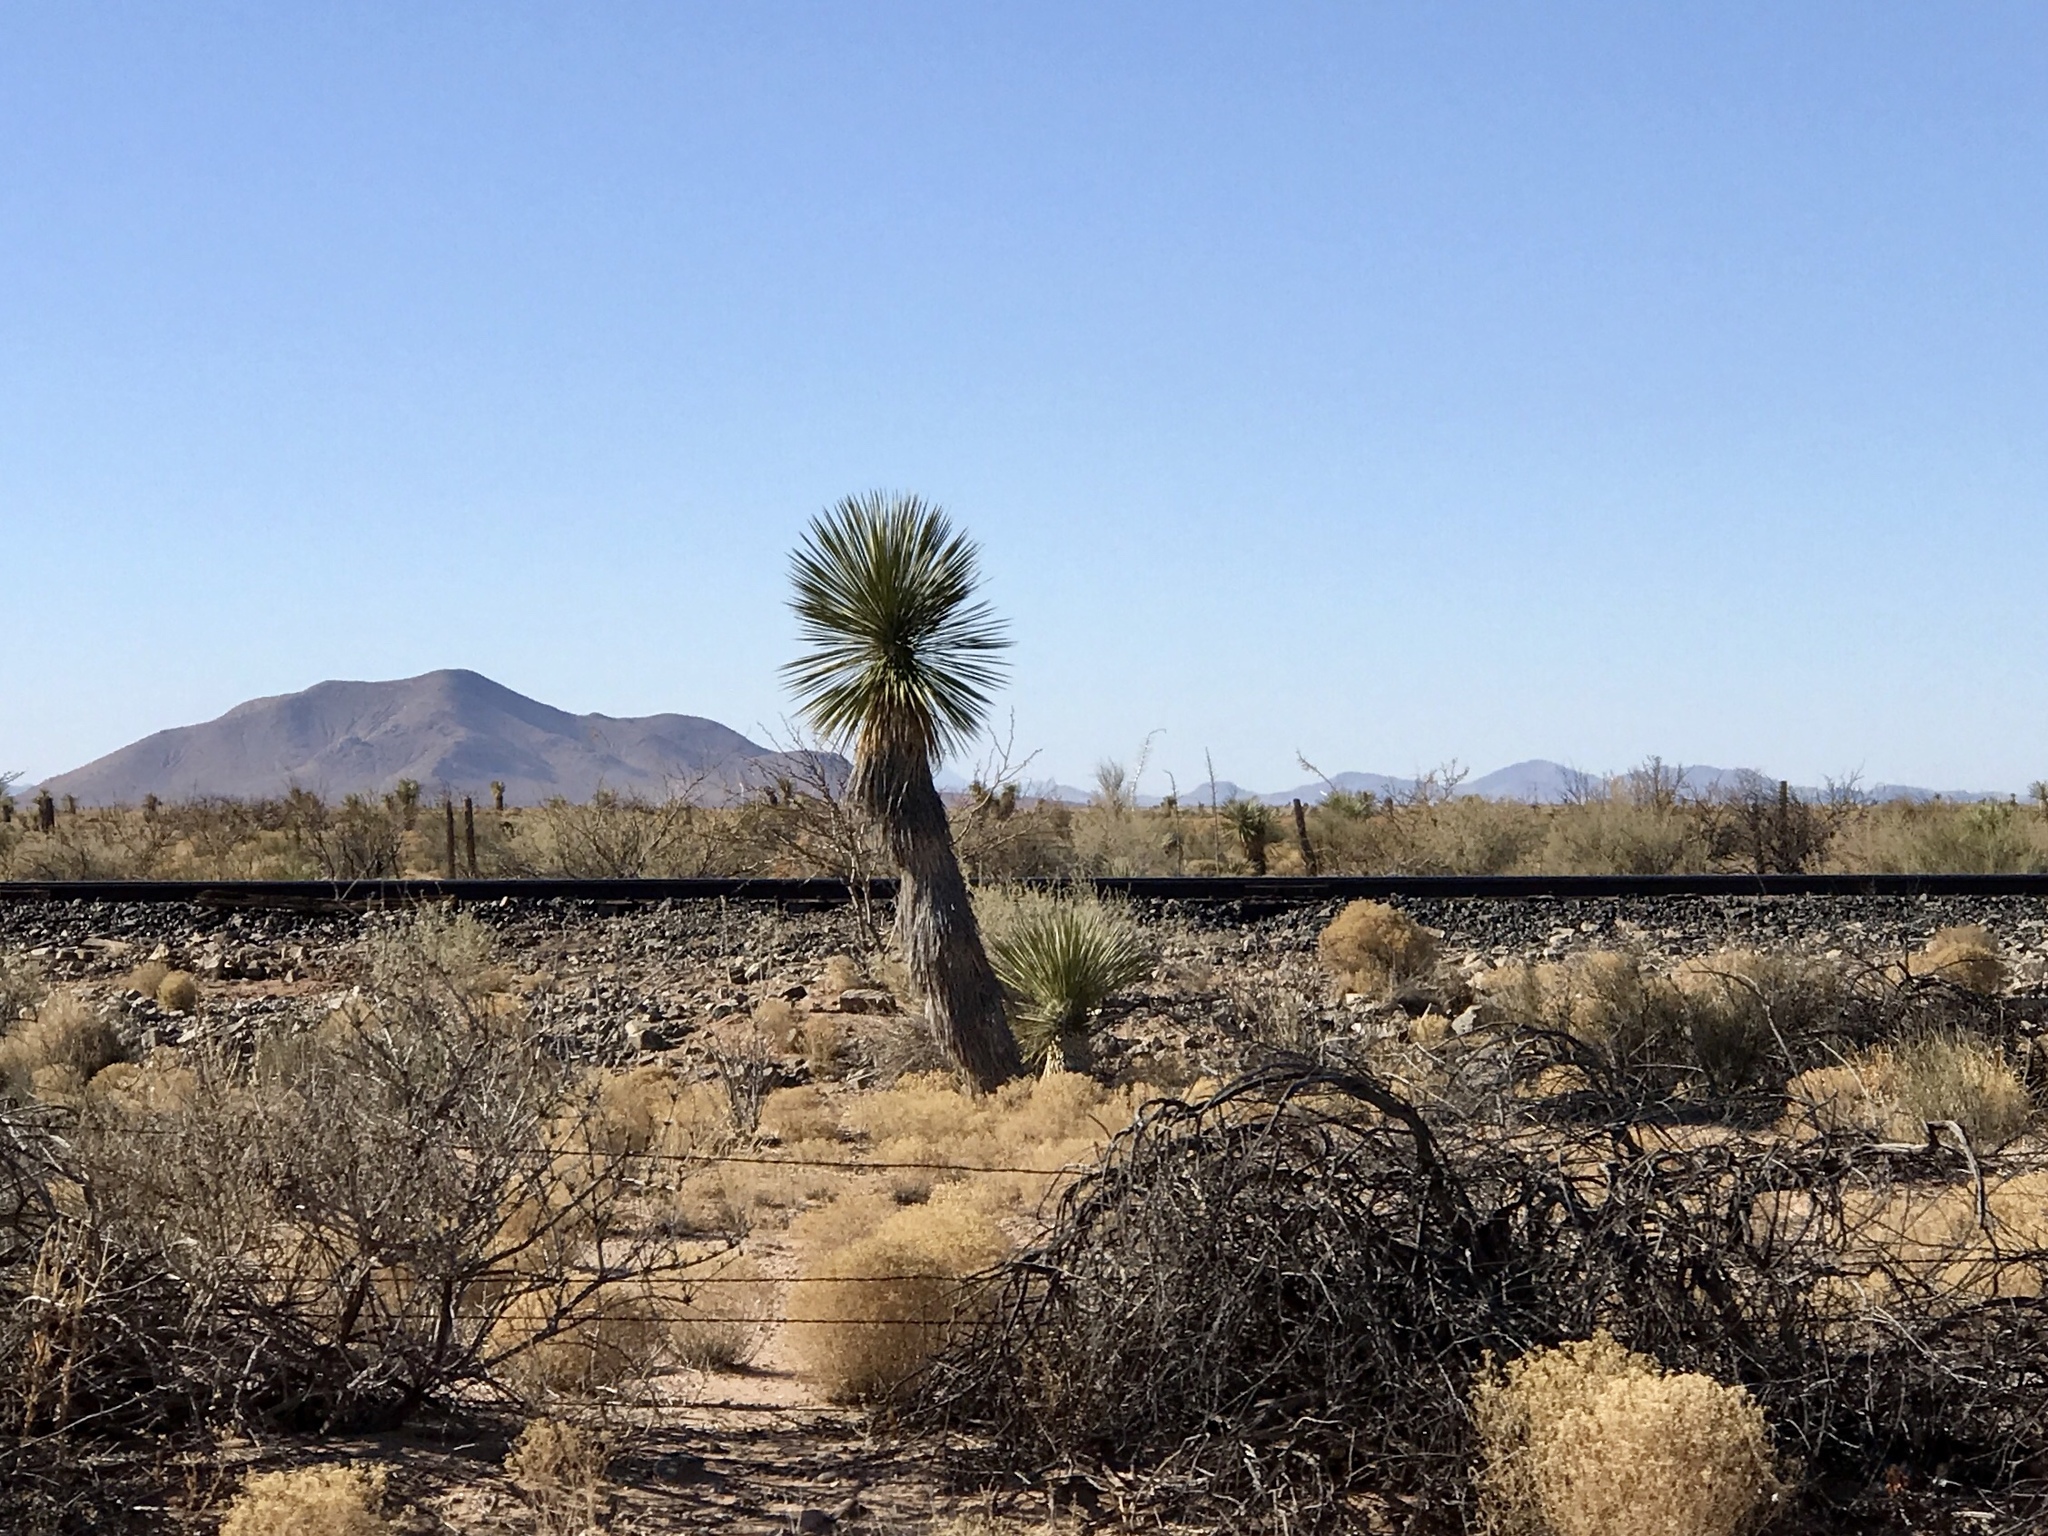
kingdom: Plantae
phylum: Tracheophyta
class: Liliopsida
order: Asparagales
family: Asparagaceae
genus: Yucca
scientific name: Yucca elata
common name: Palmella
